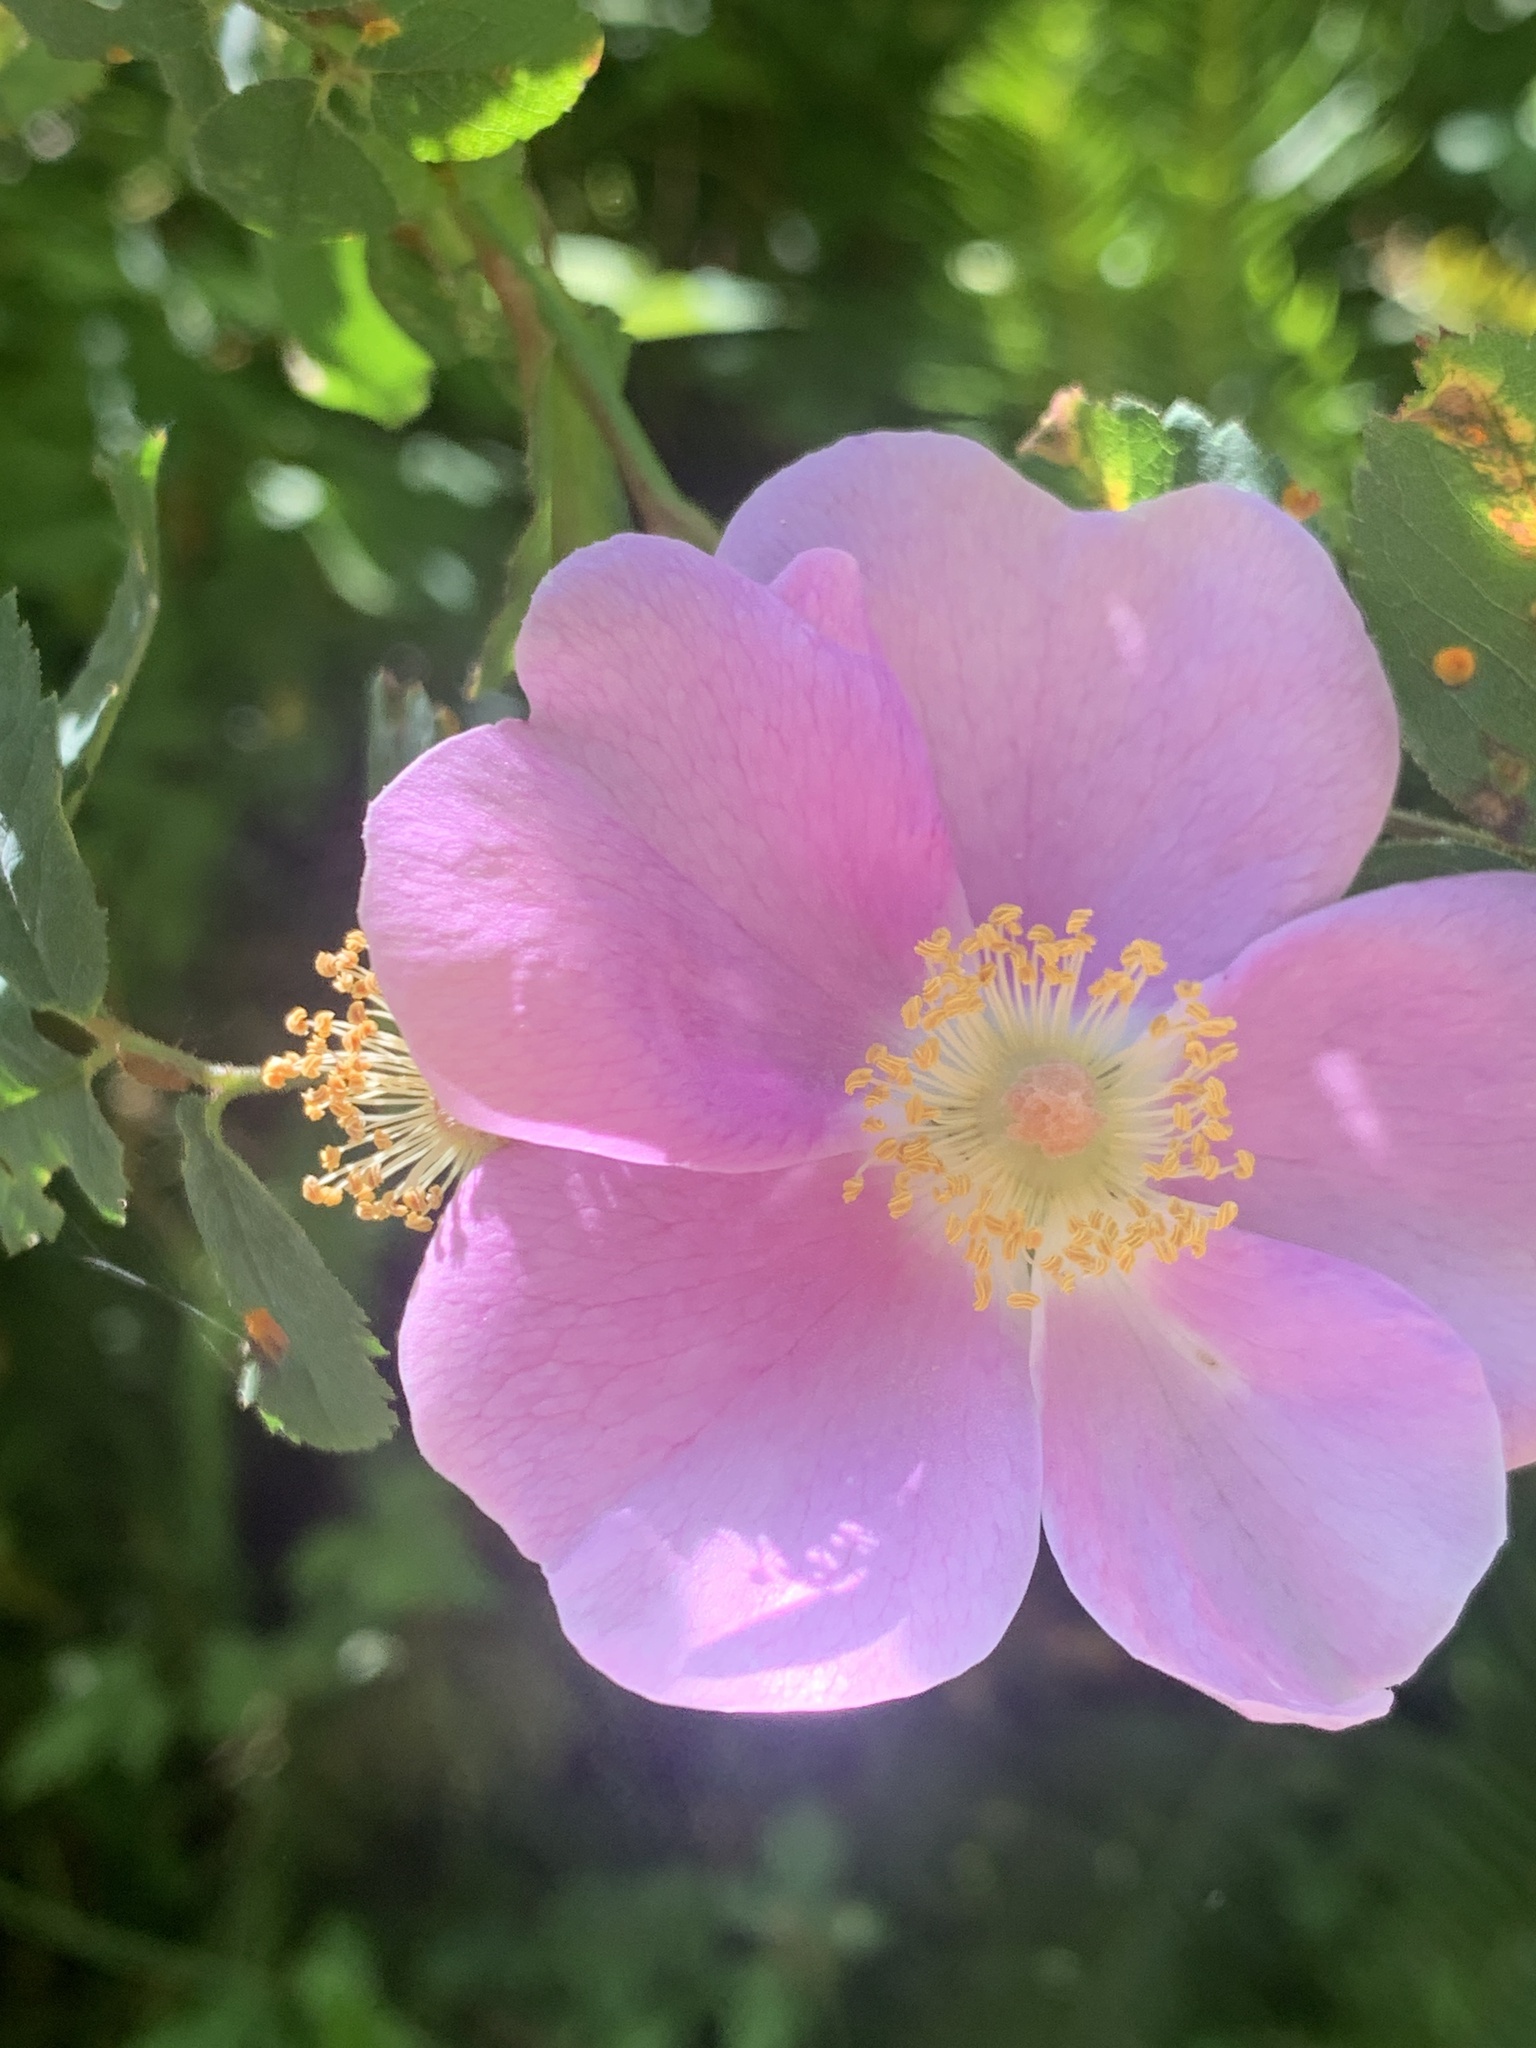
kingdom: Plantae
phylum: Tracheophyta
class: Magnoliopsida
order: Rosales
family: Rosaceae
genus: Rosa
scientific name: Rosa nutkana
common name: Nootka rose
